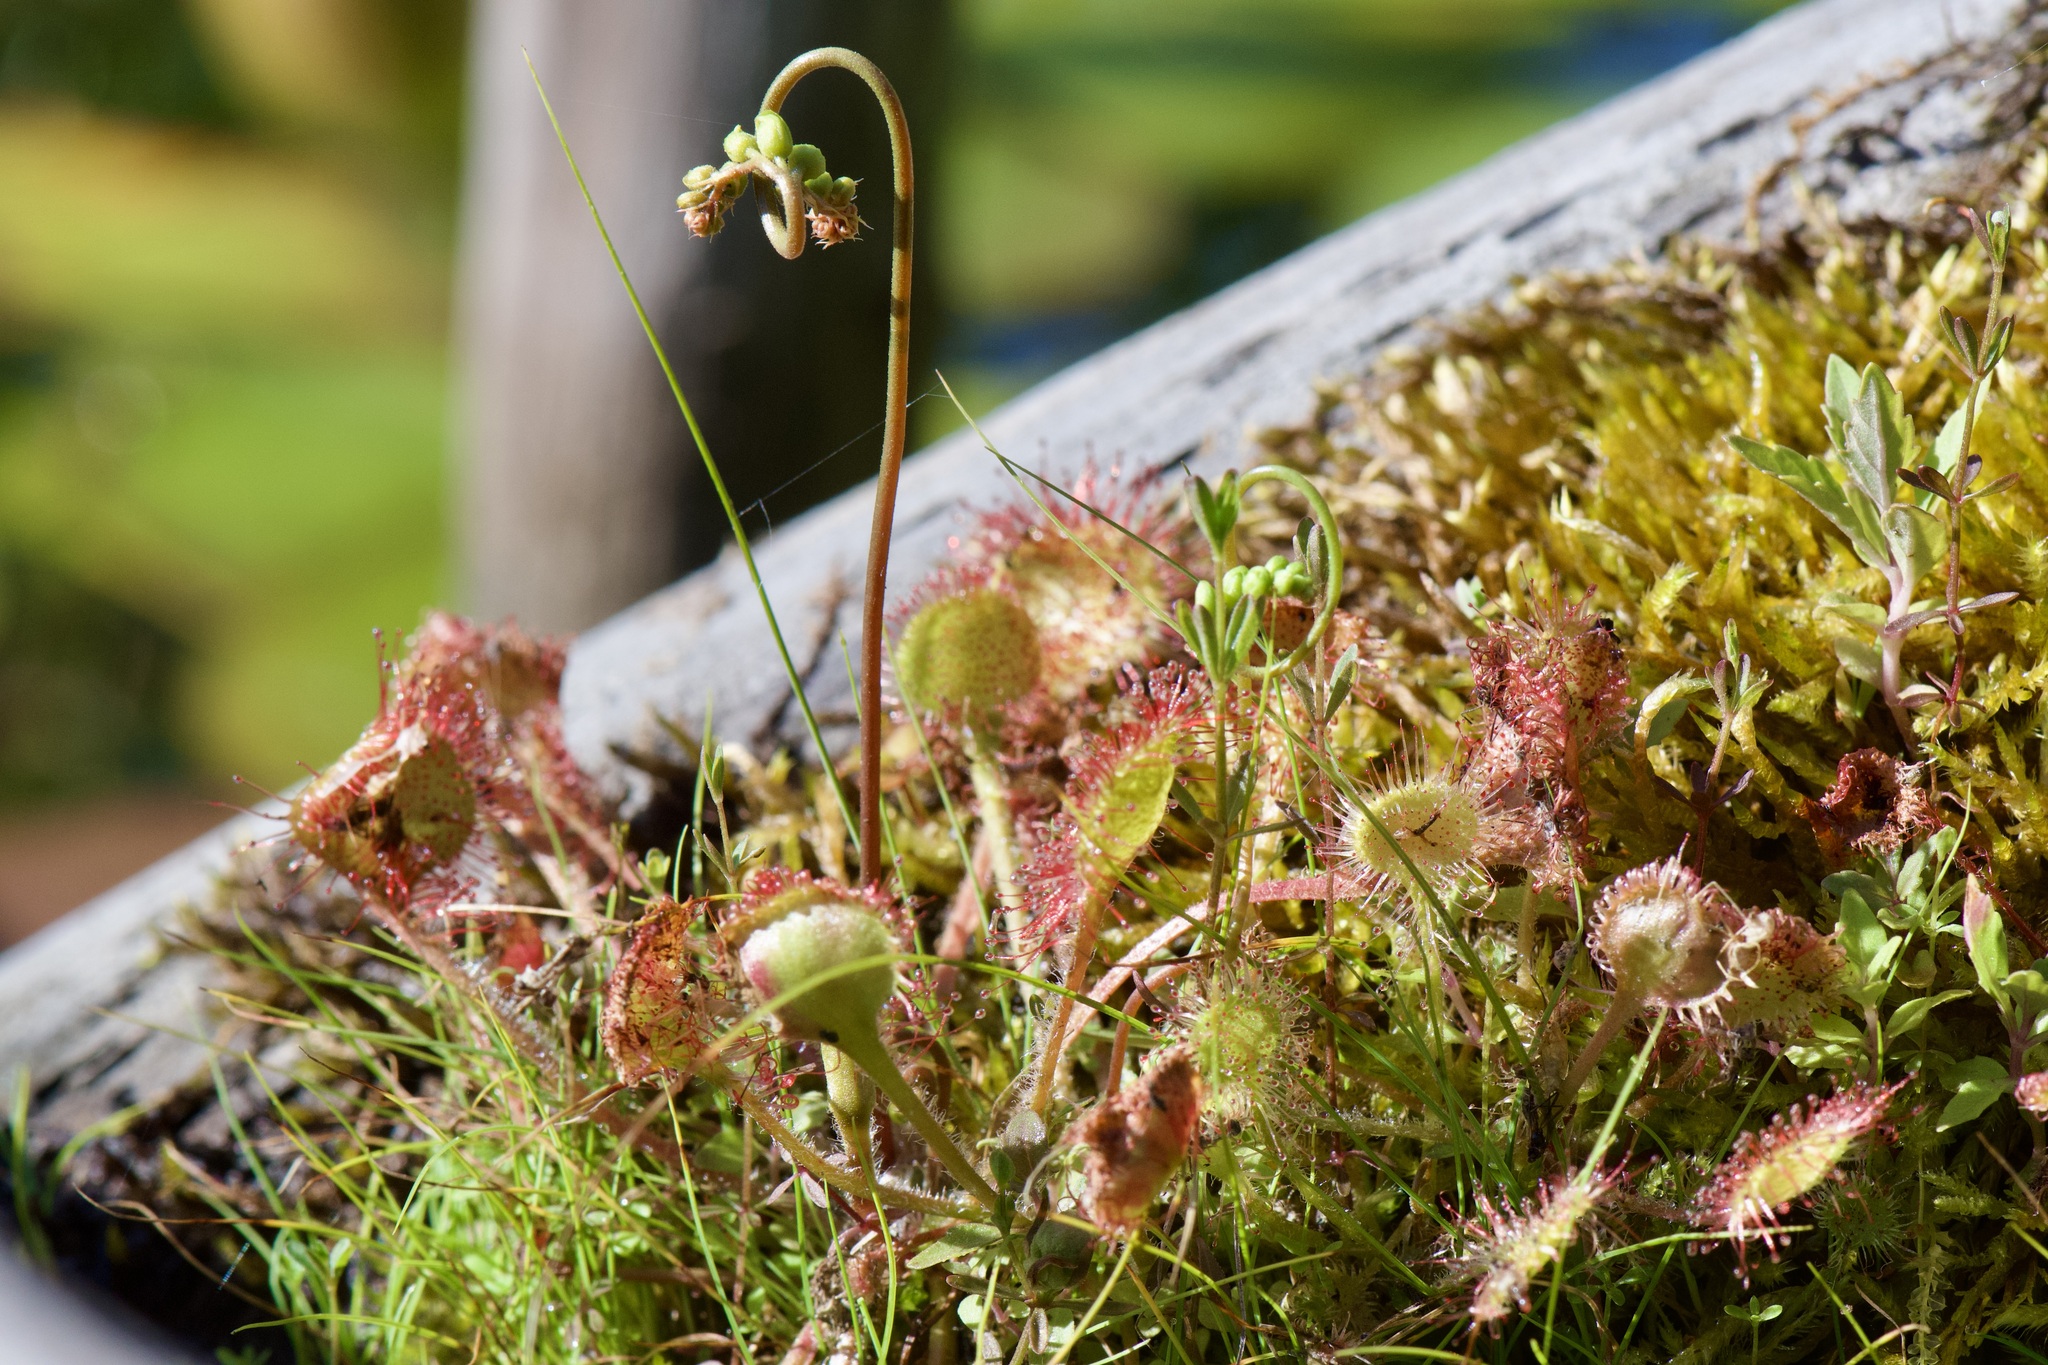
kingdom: Plantae
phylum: Tracheophyta
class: Magnoliopsida
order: Caryophyllales
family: Droseraceae
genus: Drosera
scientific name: Drosera rotundifolia
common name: Round-leaved sundew
